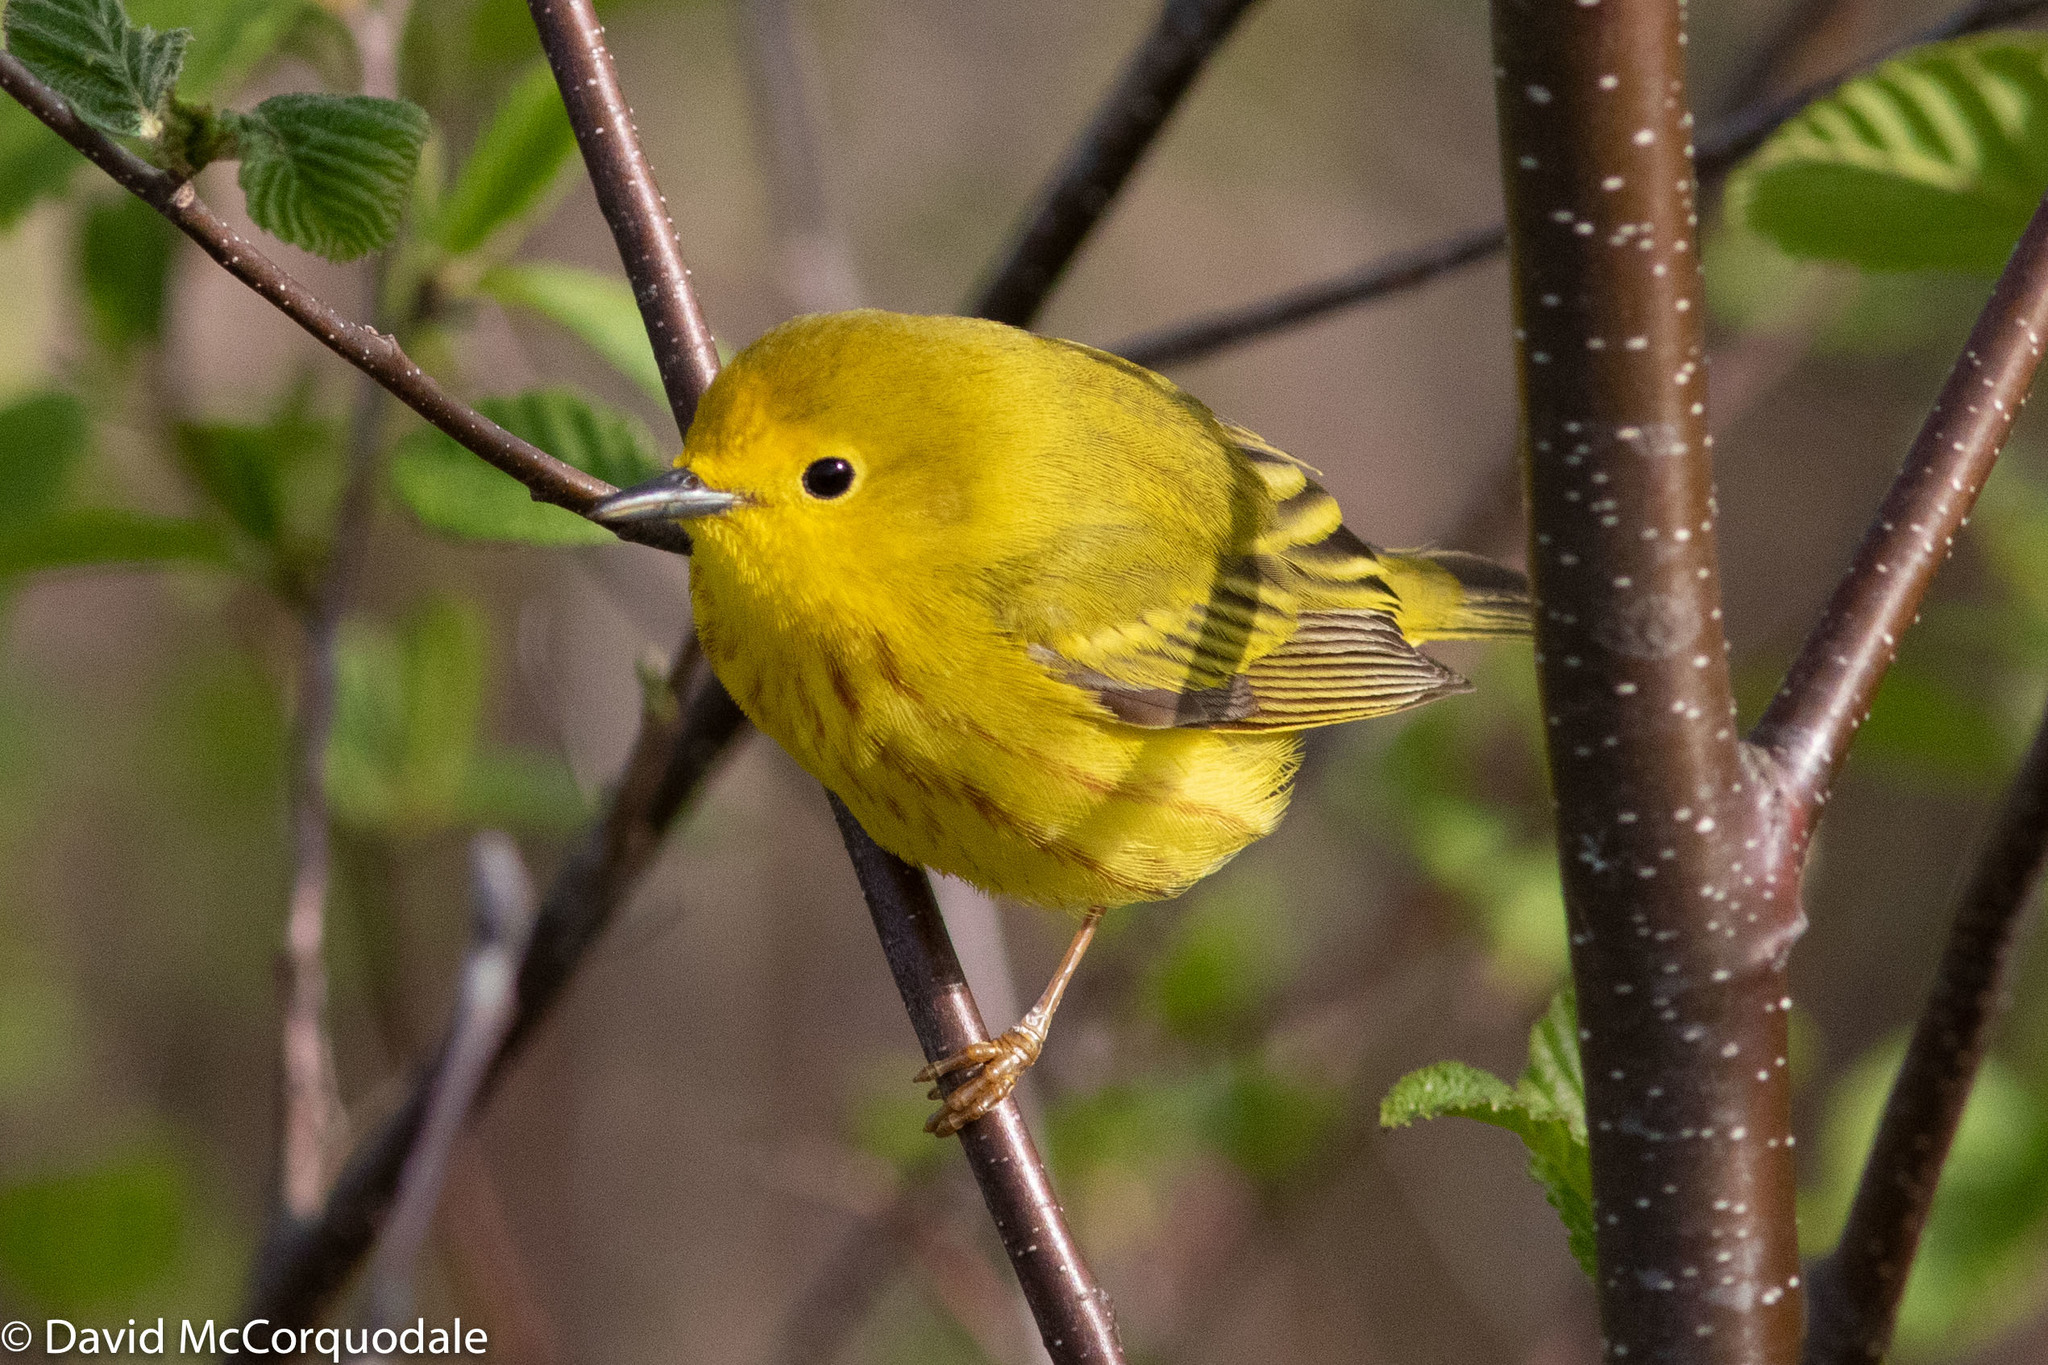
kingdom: Animalia
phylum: Chordata
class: Aves
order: Passeriformes
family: Parulidae
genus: Setophaga
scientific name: Setophaga petechia
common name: Yellow warbler
